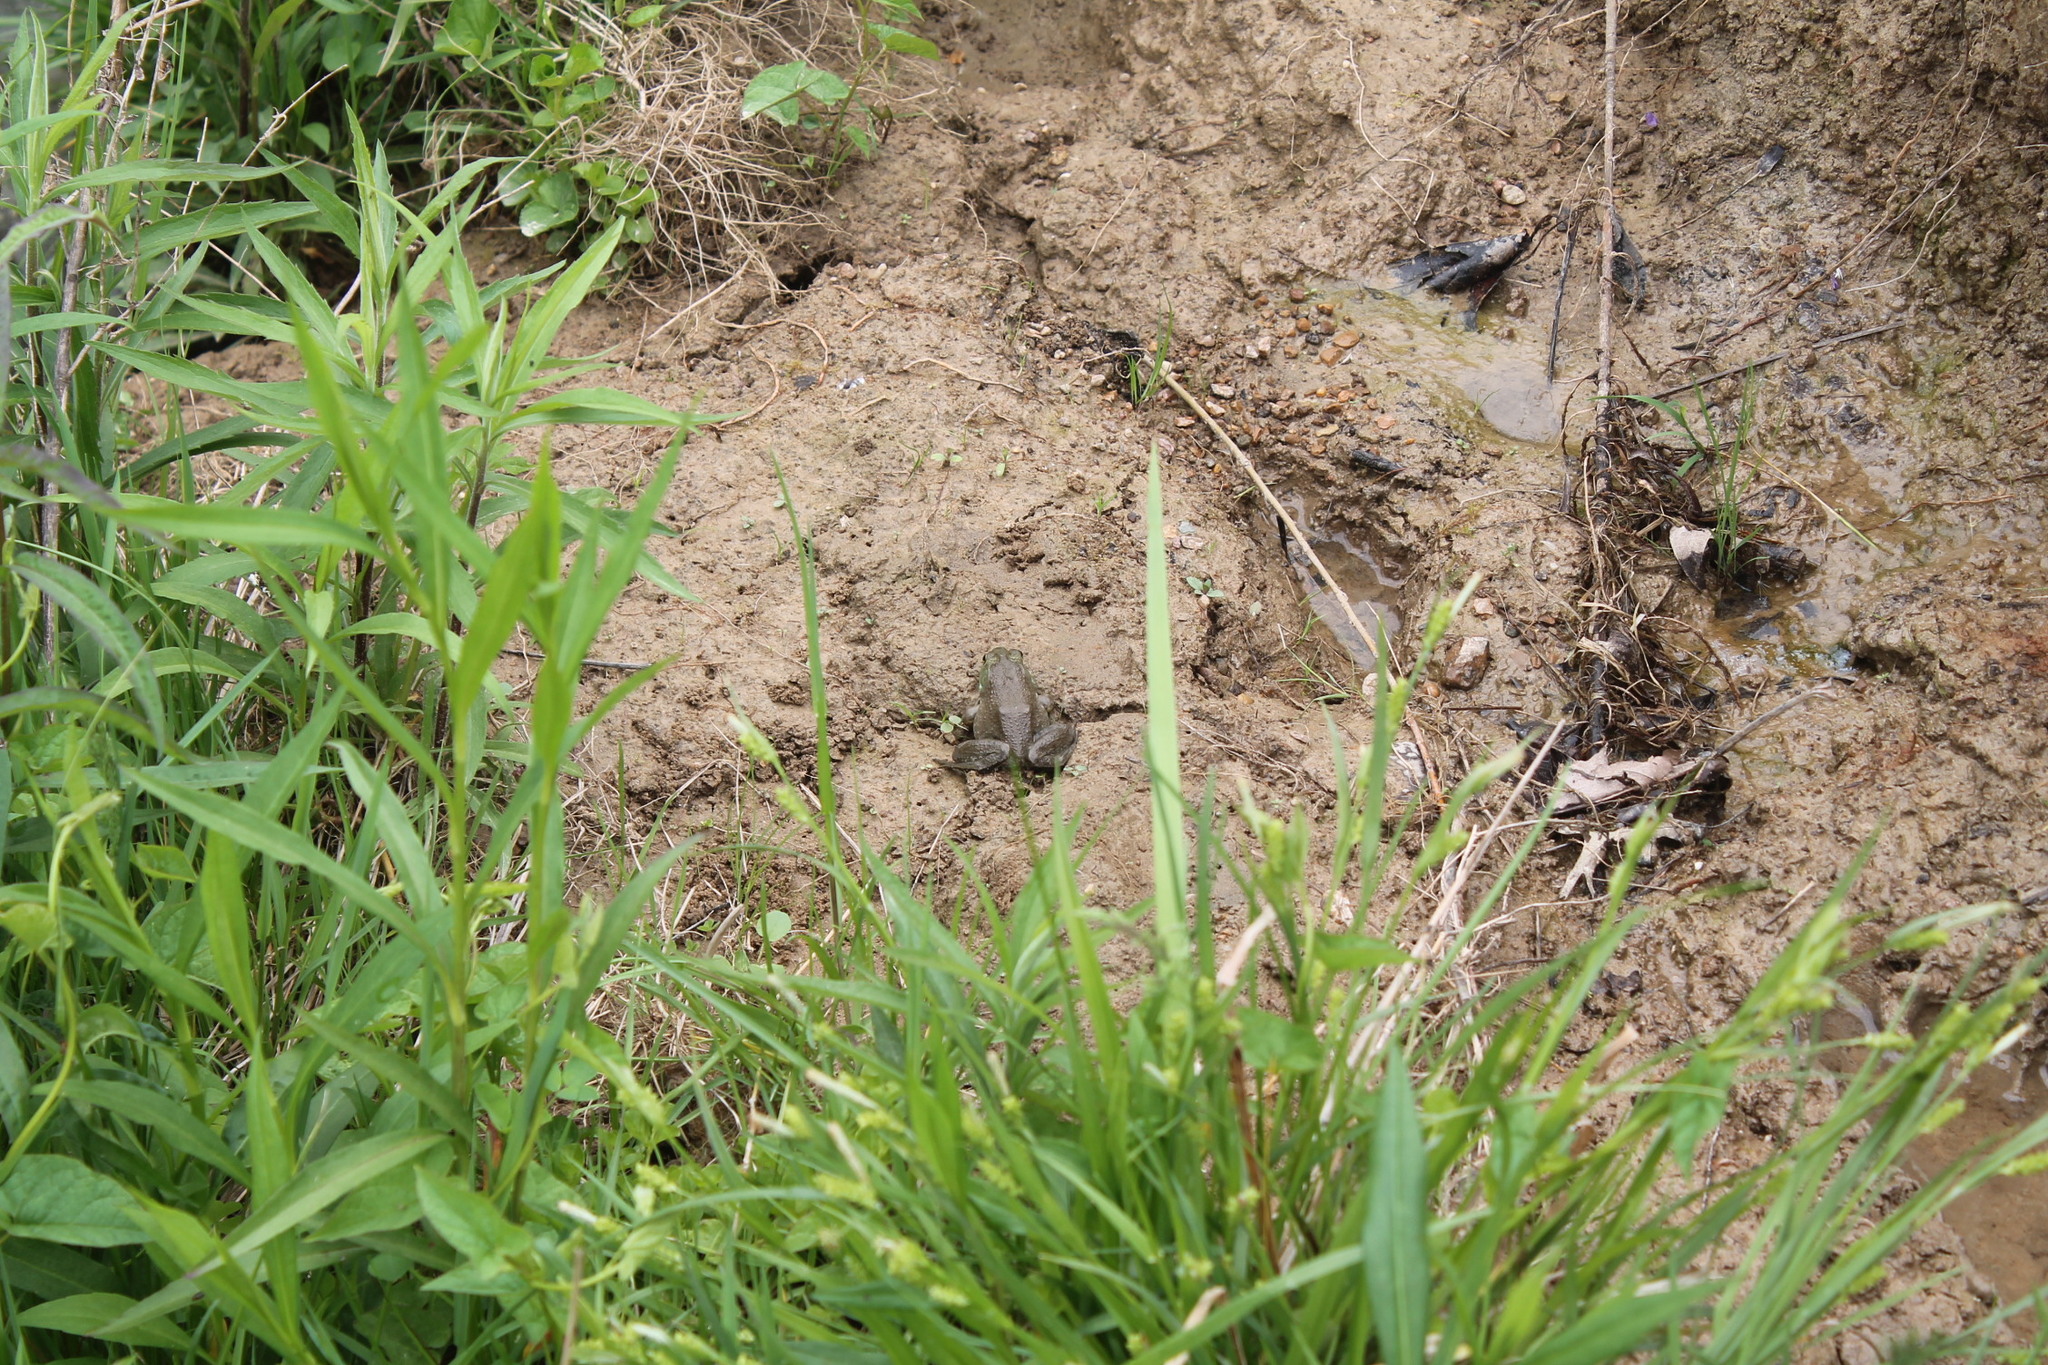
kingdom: Animalia
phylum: Chordata
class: Amphibia
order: Anura
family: Ranidae
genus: Lithobates
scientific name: Lithobates catesbeianus
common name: American bullfrog
